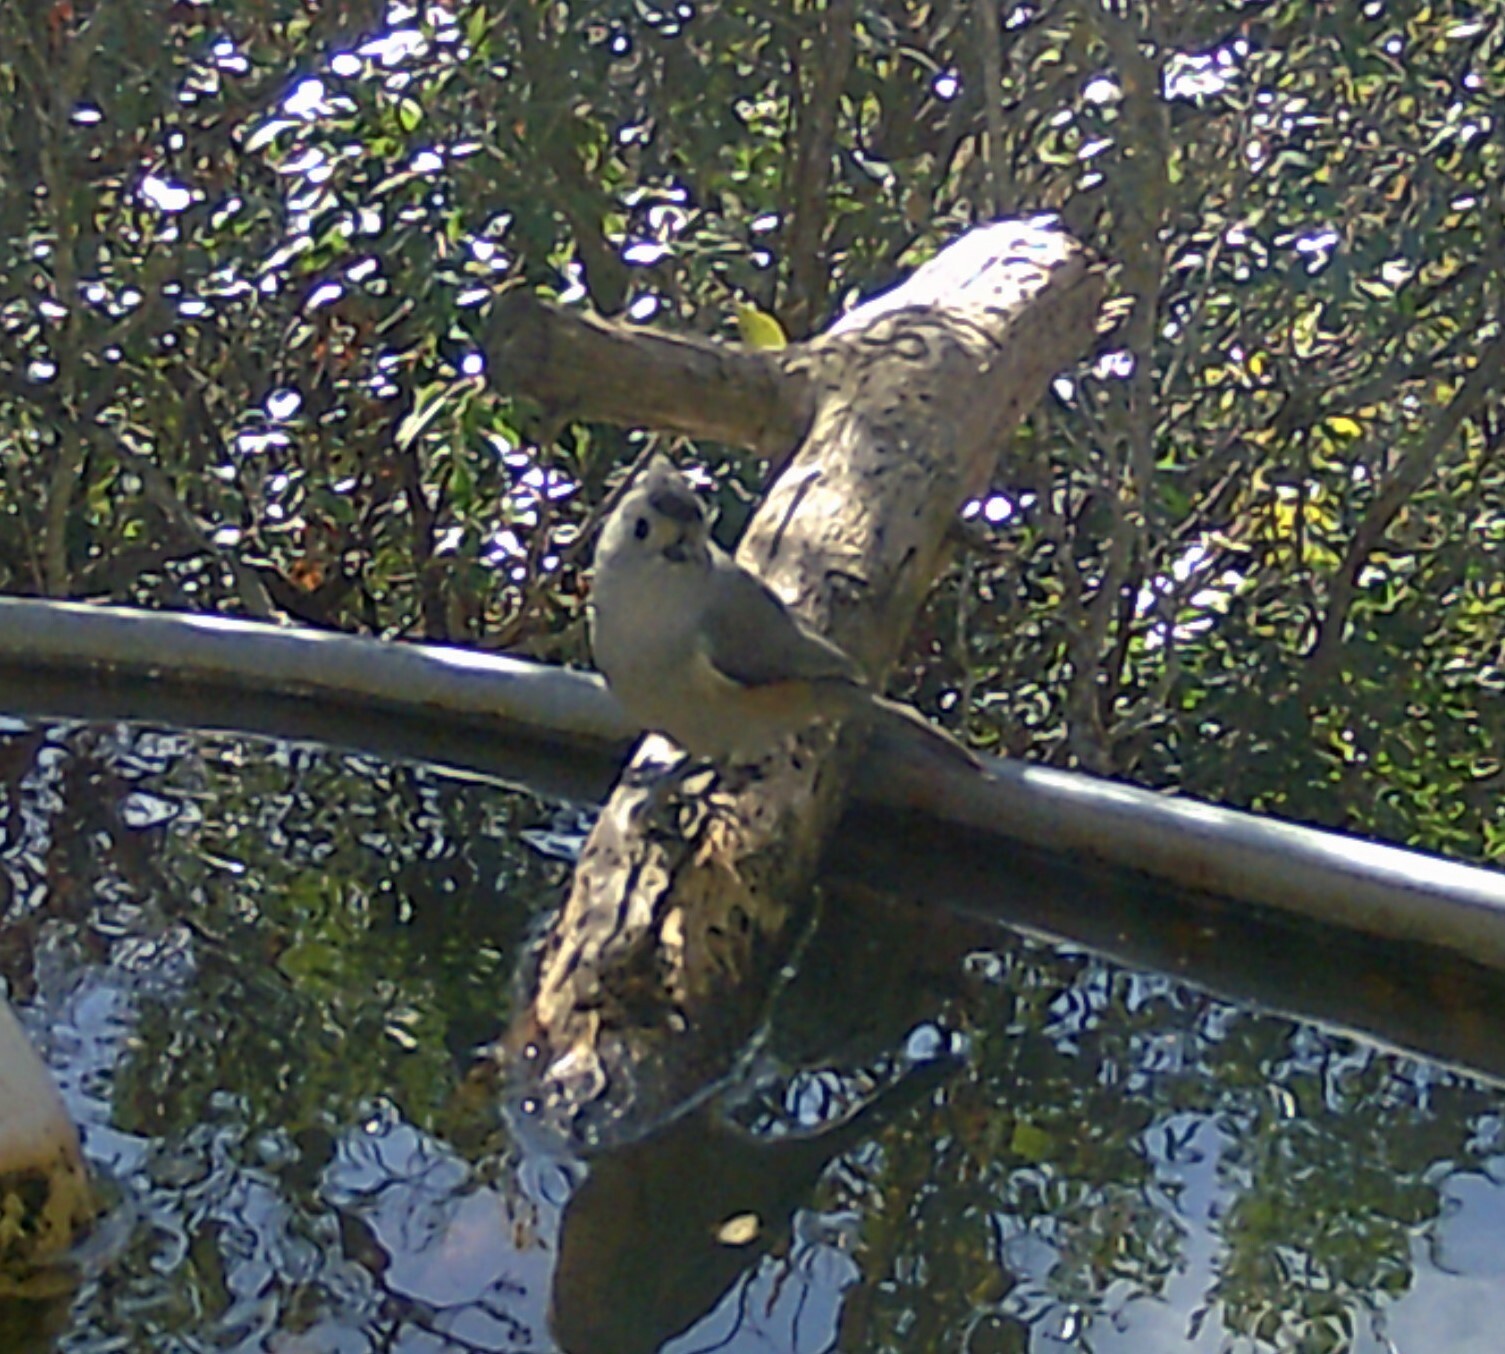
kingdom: Animalia
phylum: Chordata
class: Aves
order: Passeriformes
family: Paridae
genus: Baeolophus
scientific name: Baeolophus atricristatus
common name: Black-crested titmouse
